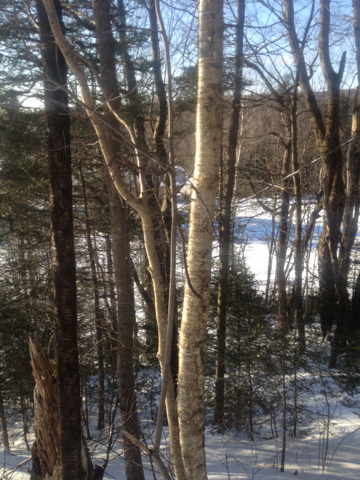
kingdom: Plantae
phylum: Tracheophyta
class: Magnoliopsida
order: Fagales
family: Betulaceae
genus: Betula
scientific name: Betula alleghaniensis
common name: Yellow birch
